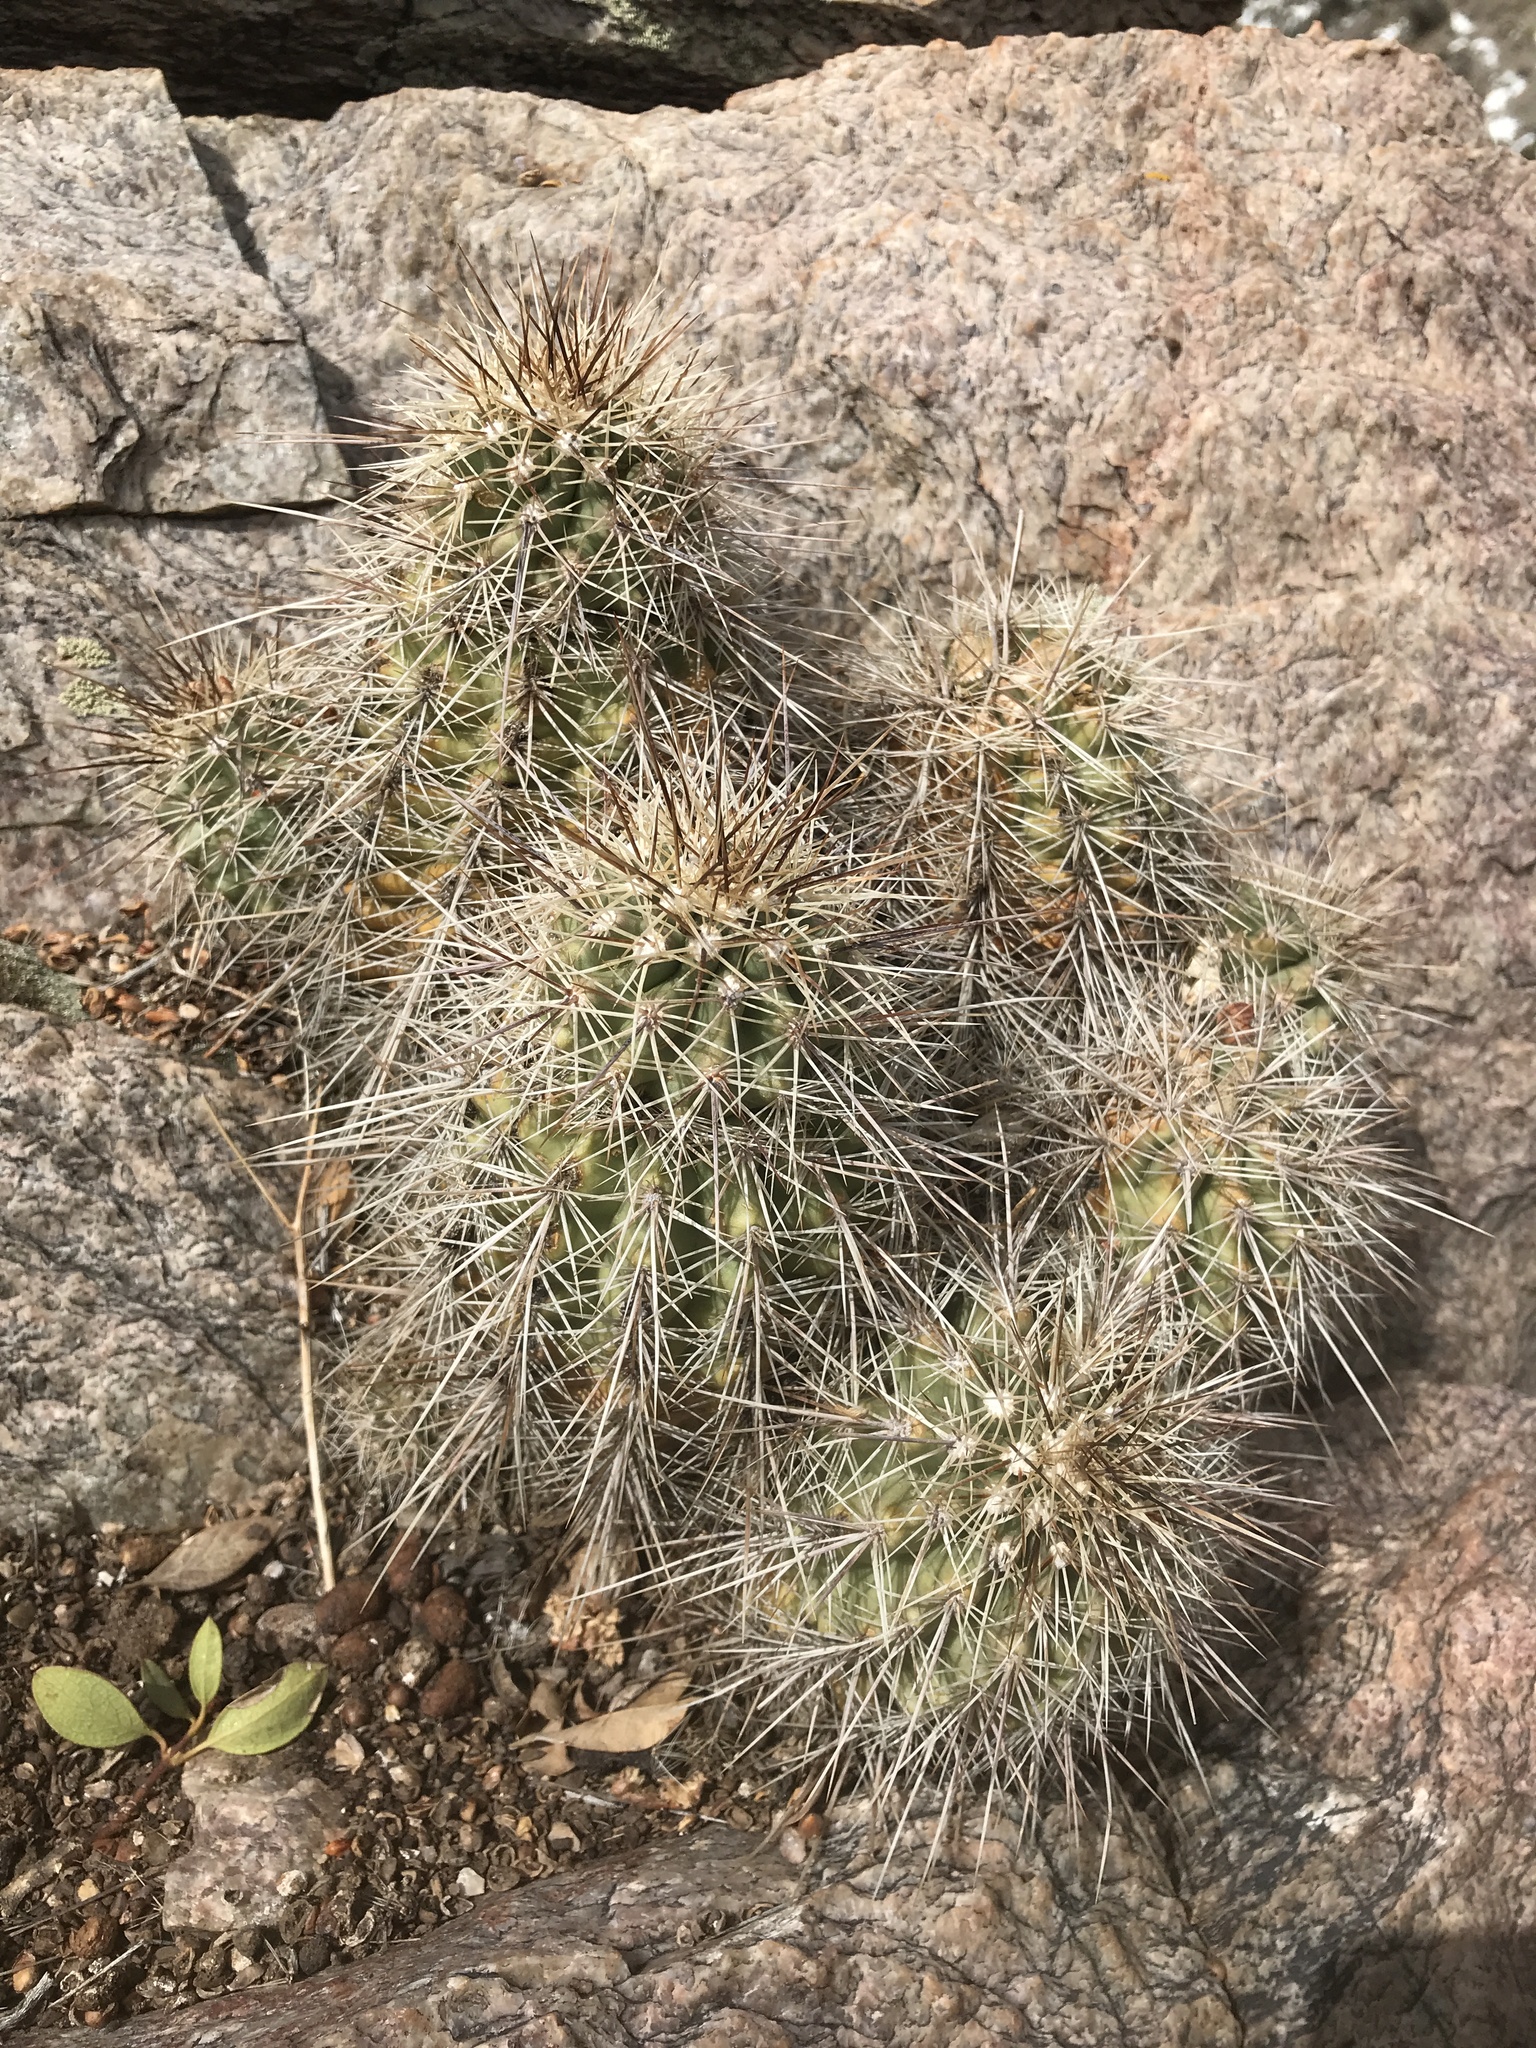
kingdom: Plantae
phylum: Tracheophyta
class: Magnoliopsida
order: Caryophyllales
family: Cactaceae
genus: Echinocereus
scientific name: Echinocereus coccineus
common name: Scarlet hedgehog cactus
